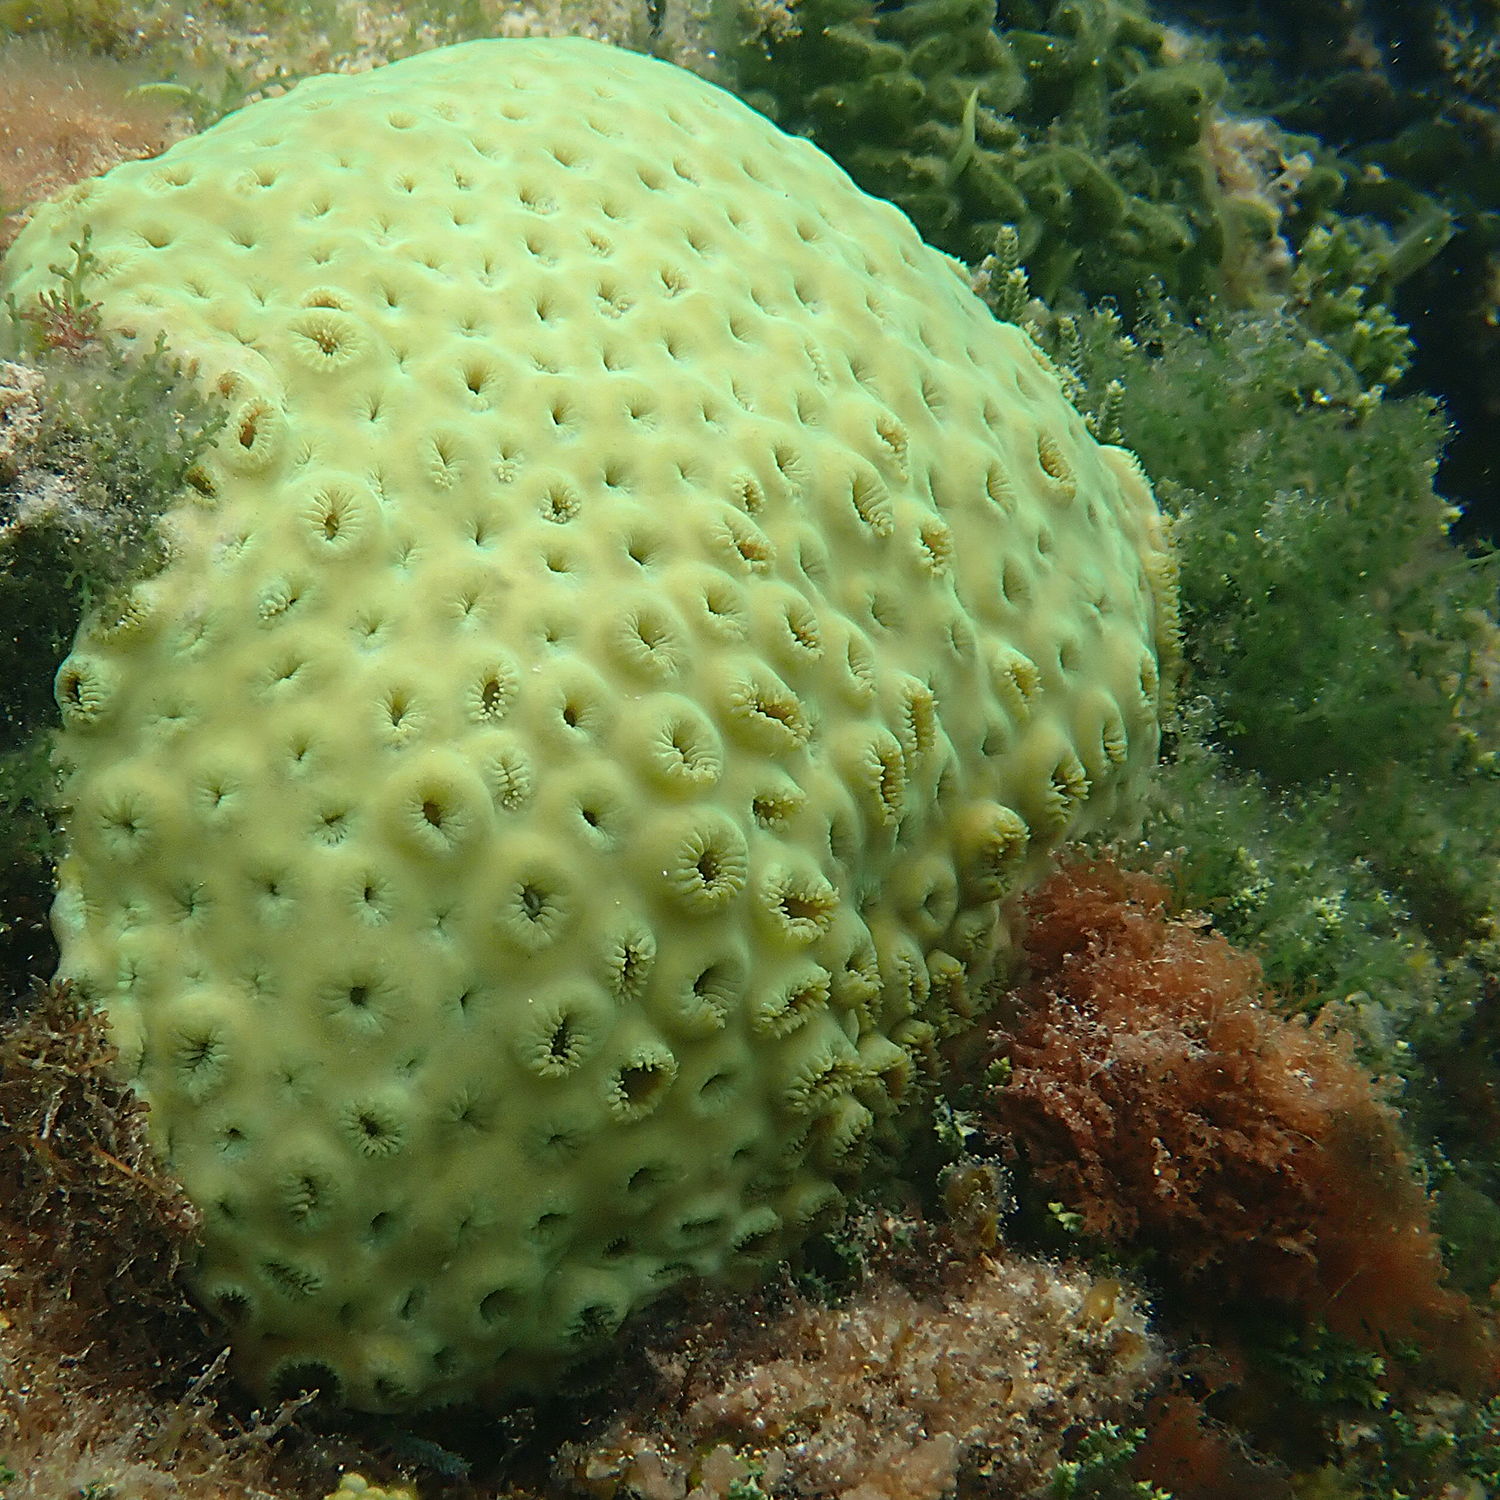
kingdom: Animalia
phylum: Cnidaria
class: Anthozoa
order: Zoantharia
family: Sphenopidae
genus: Palythoa
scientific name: Palythoa tuberculosa
